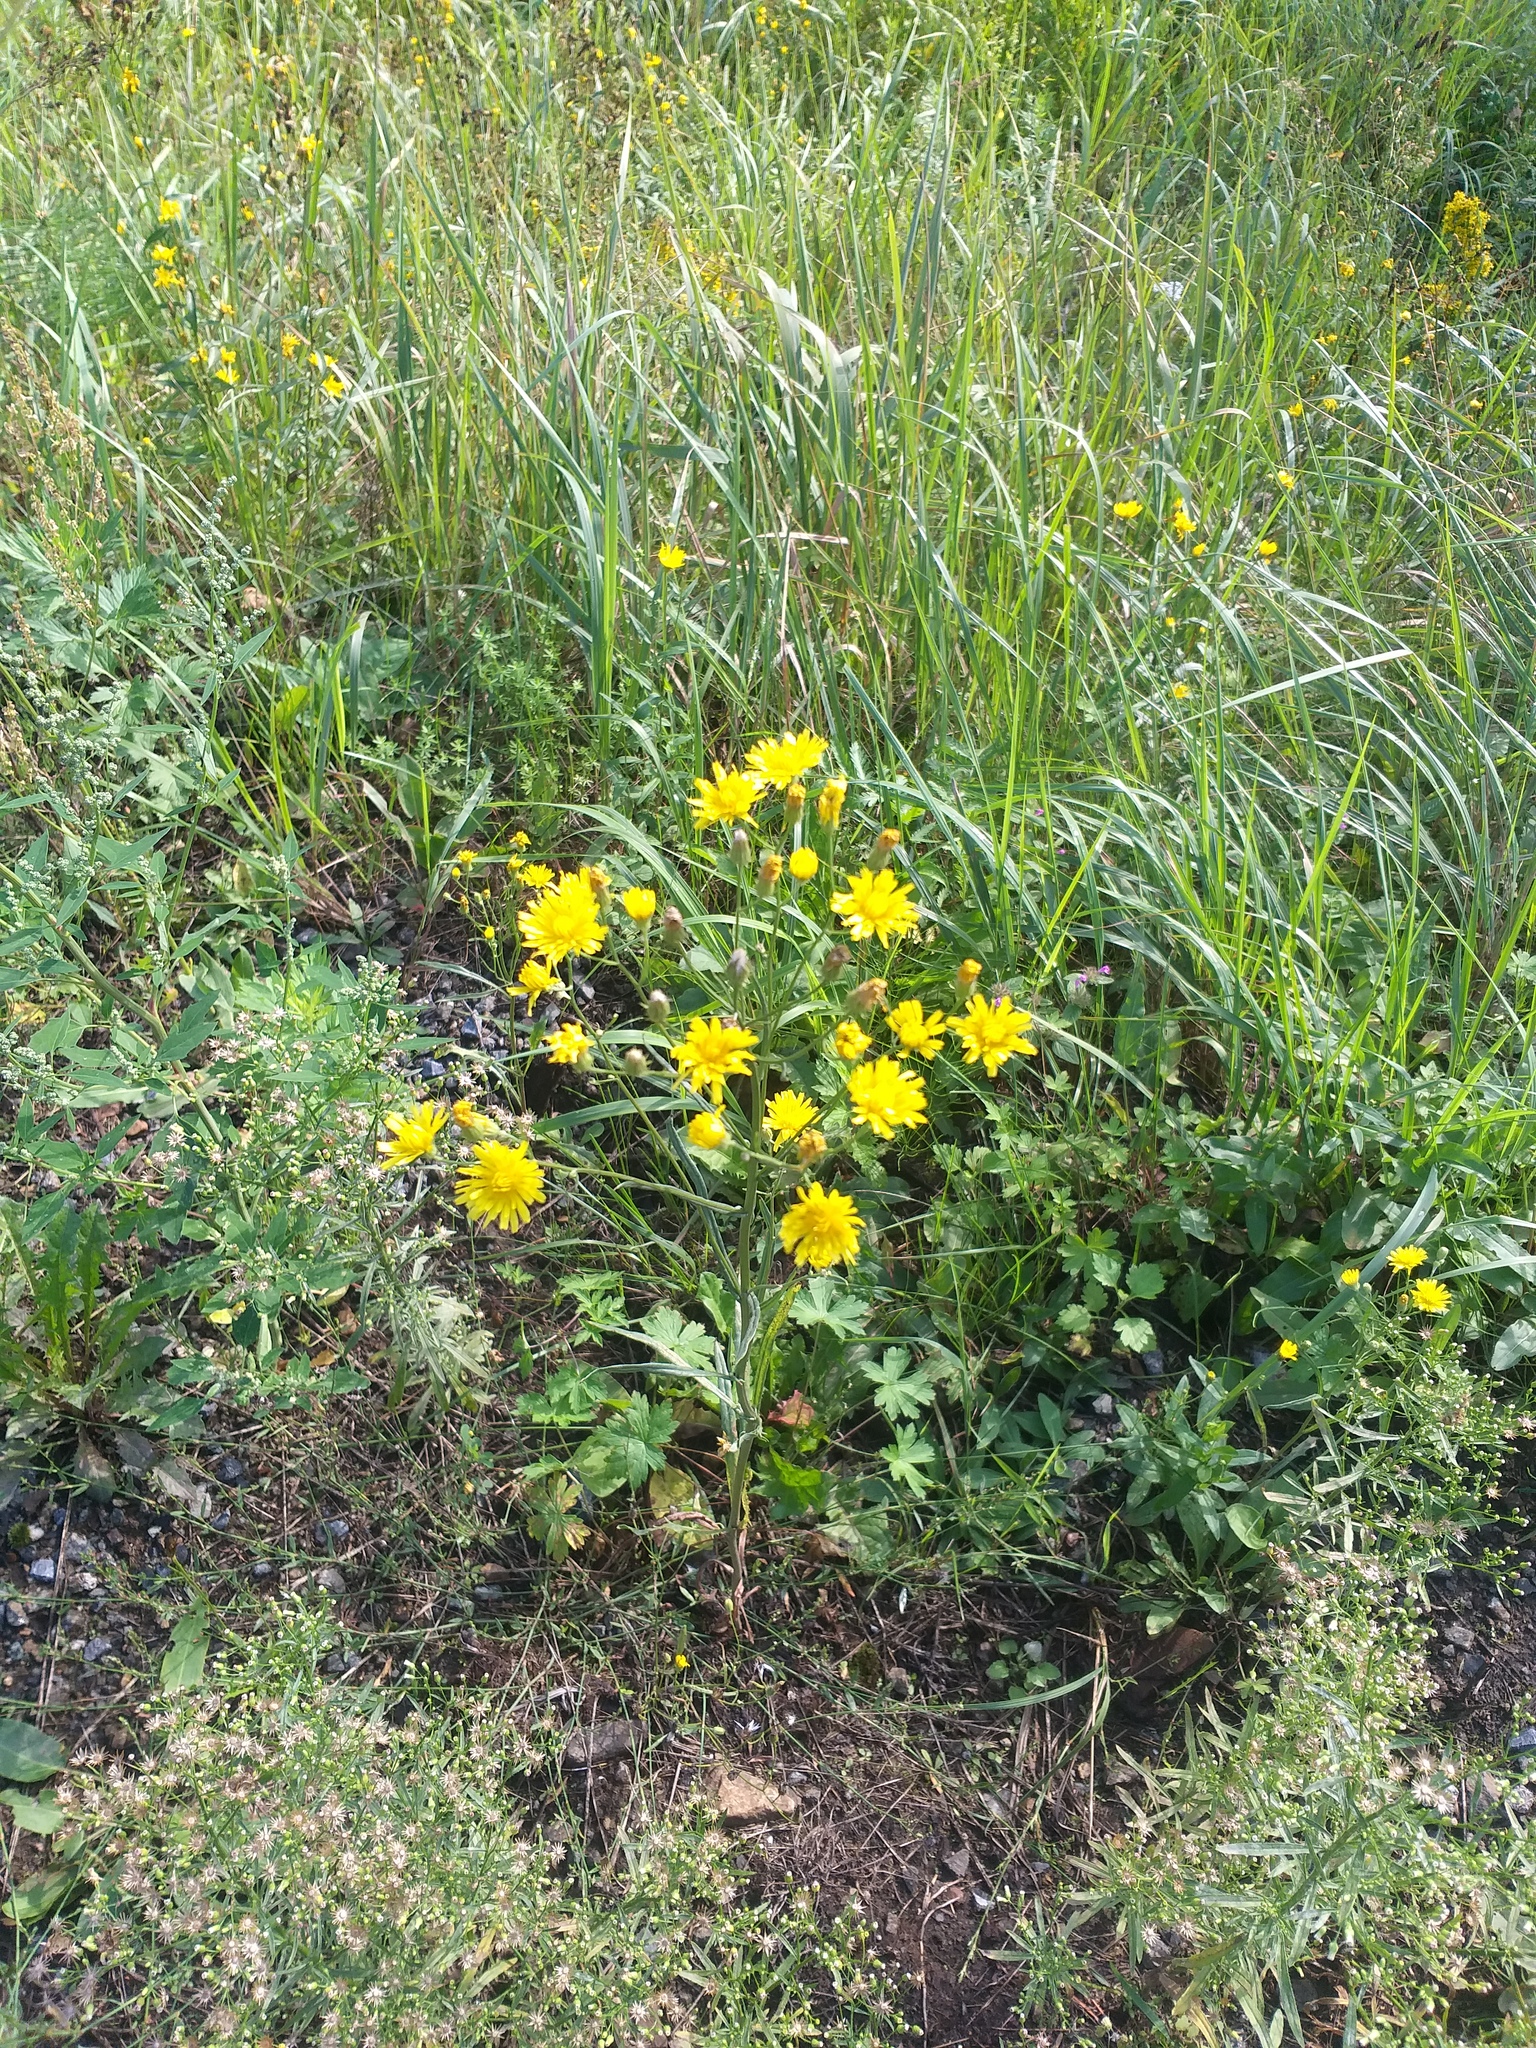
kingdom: Plantae
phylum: Tracheophyta
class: Magnoliopsida
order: Asterales
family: Asteraceae
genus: Crepis
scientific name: Crepis tectorum
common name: Narrow-leaved hawk's-beard
